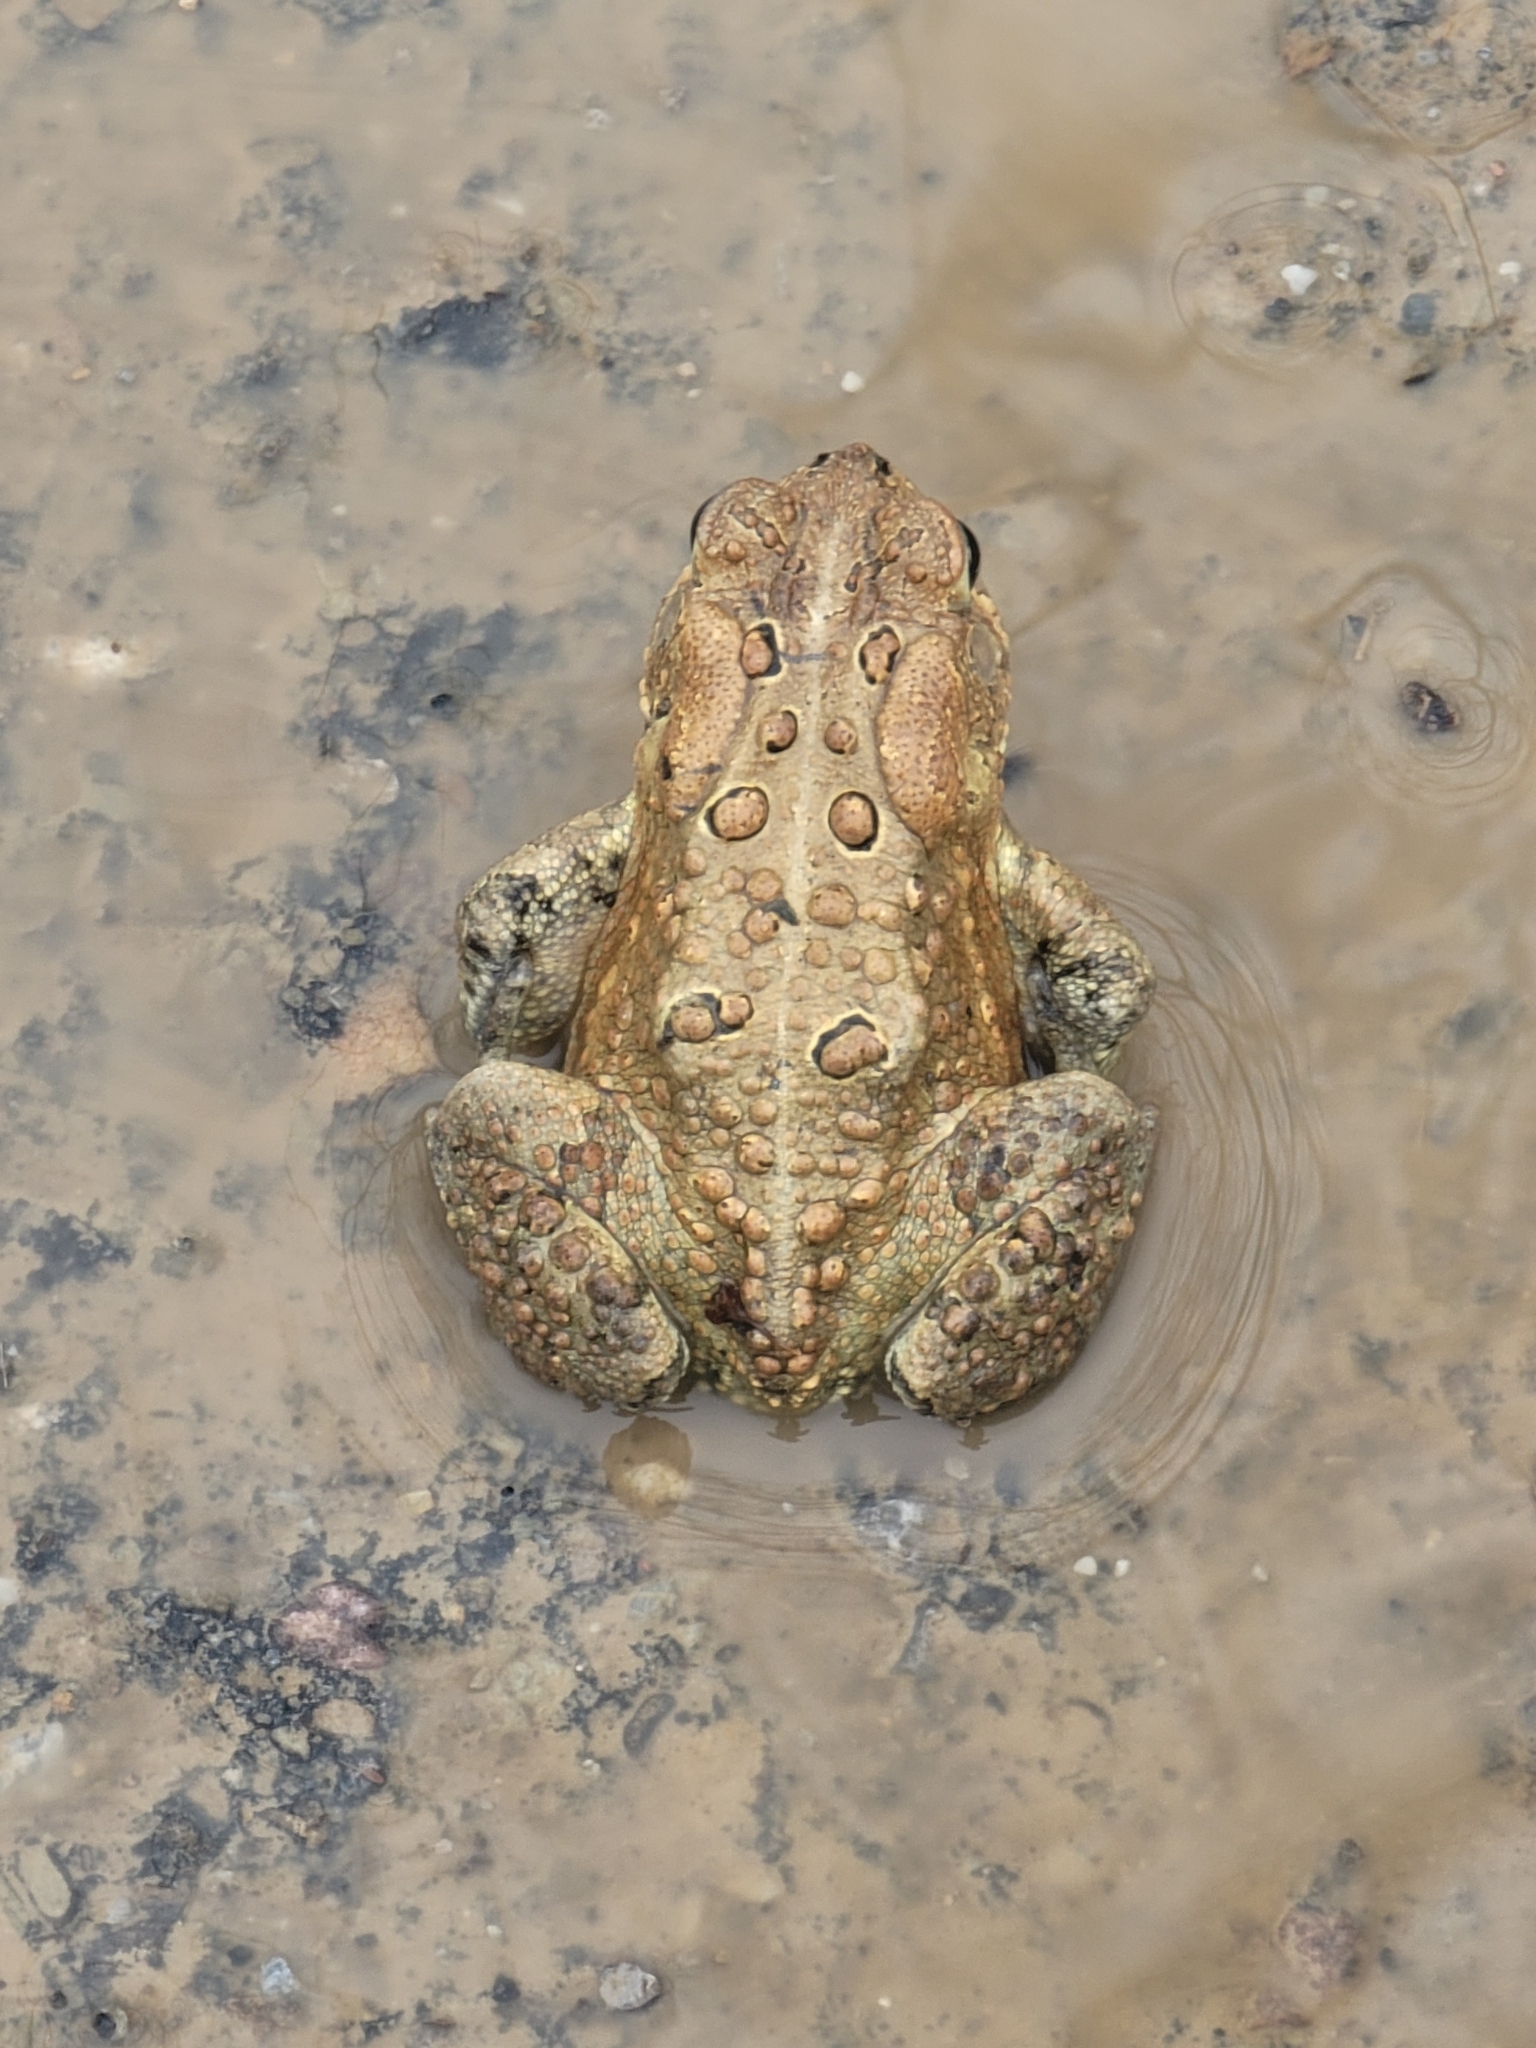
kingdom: Animalia
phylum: Chordata
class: Amphibia
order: Anura
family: Bufonidae
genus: Anaxyrus
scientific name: Anaxyrus americanus
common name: American toad
